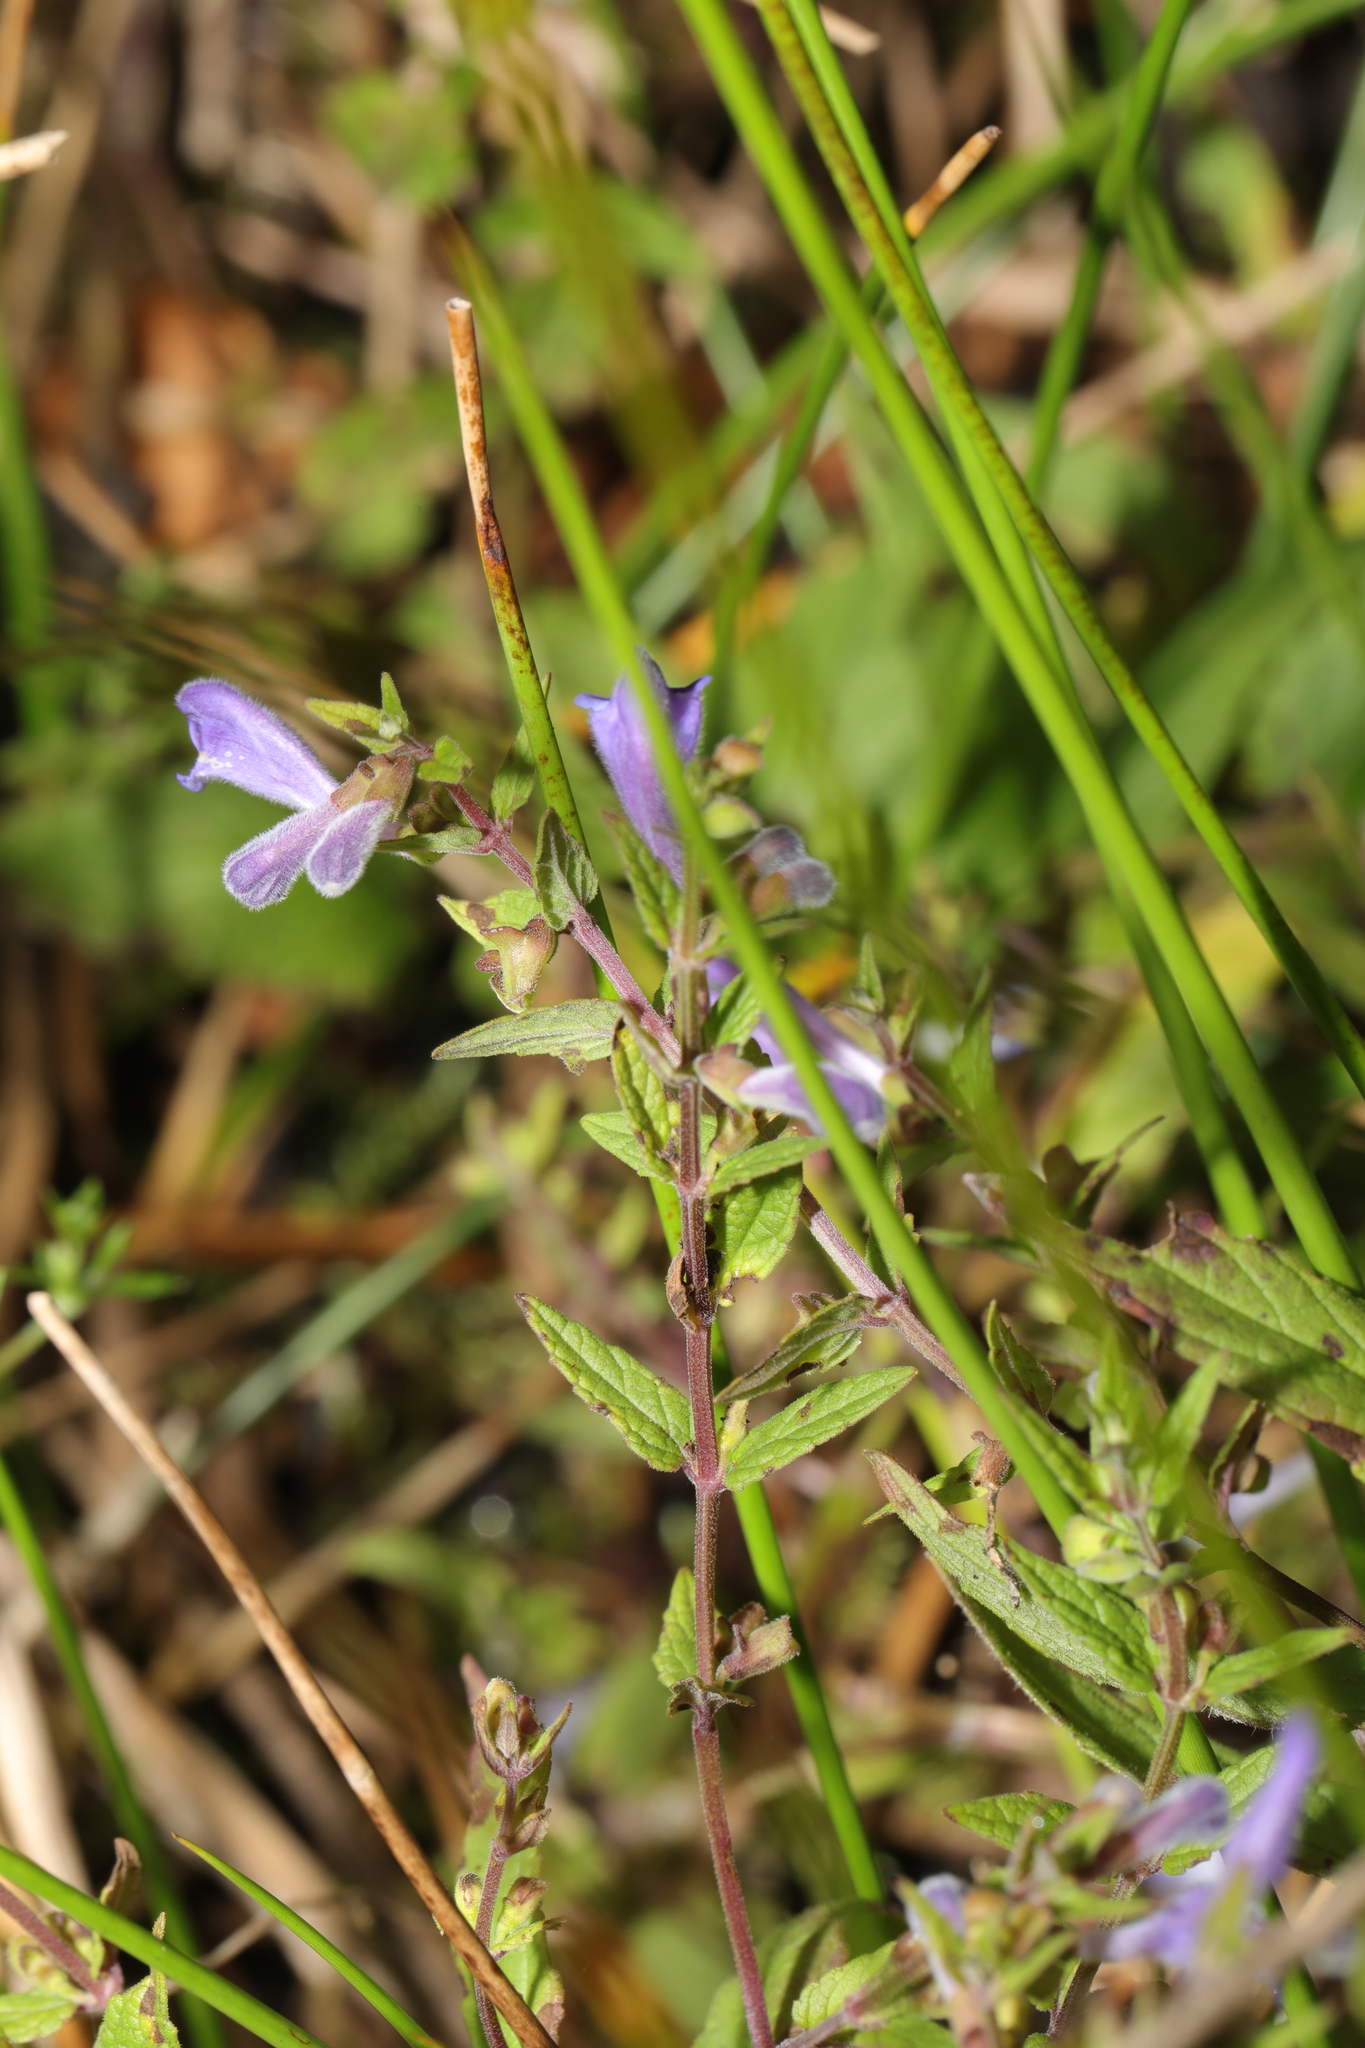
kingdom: Plantae
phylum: Tracheophyta
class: Magnoliopsida
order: Lamiales
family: Lamiaceae
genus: Scutellaria
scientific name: Scutellaria galericulata
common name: Skullcap
